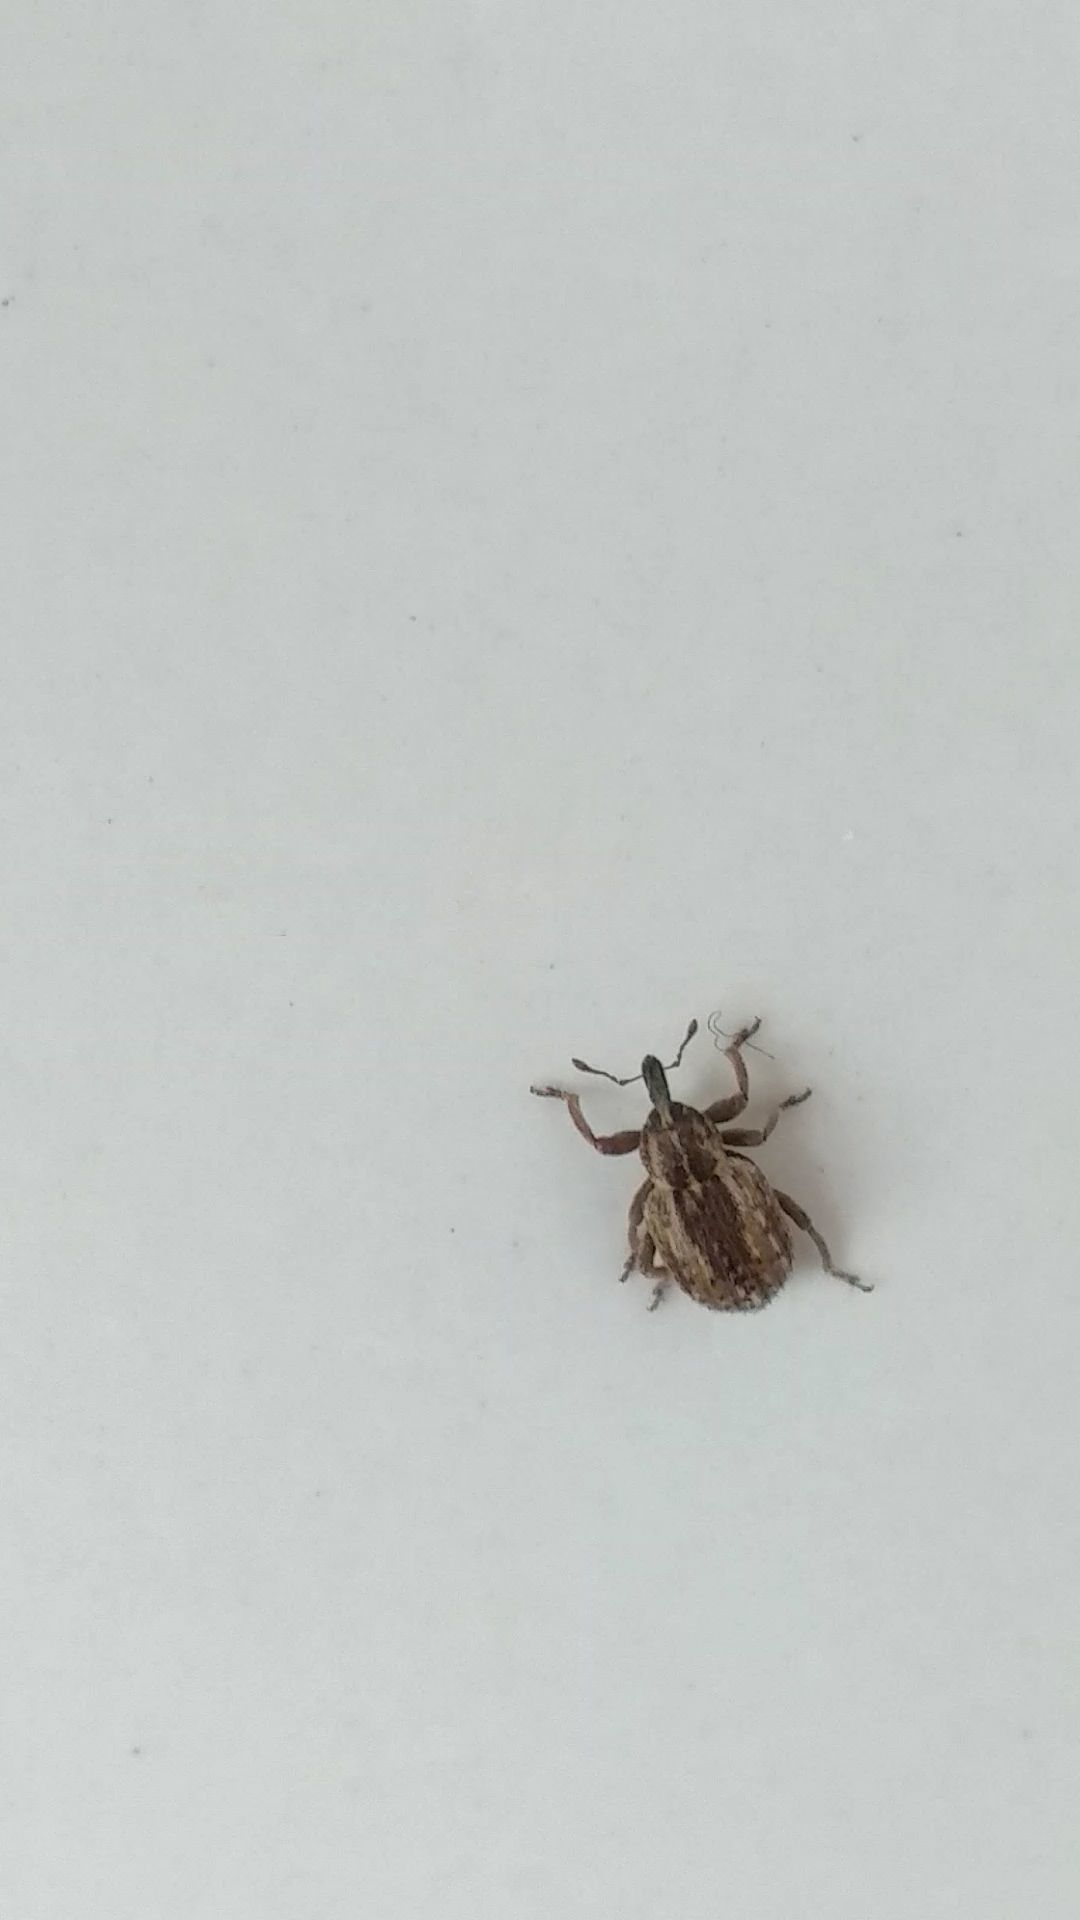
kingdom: Animalia
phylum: Arthropoda
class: Insecta
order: Coleoptera
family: Curculionidae
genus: Hypera
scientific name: Hypera postica
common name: Weevil
